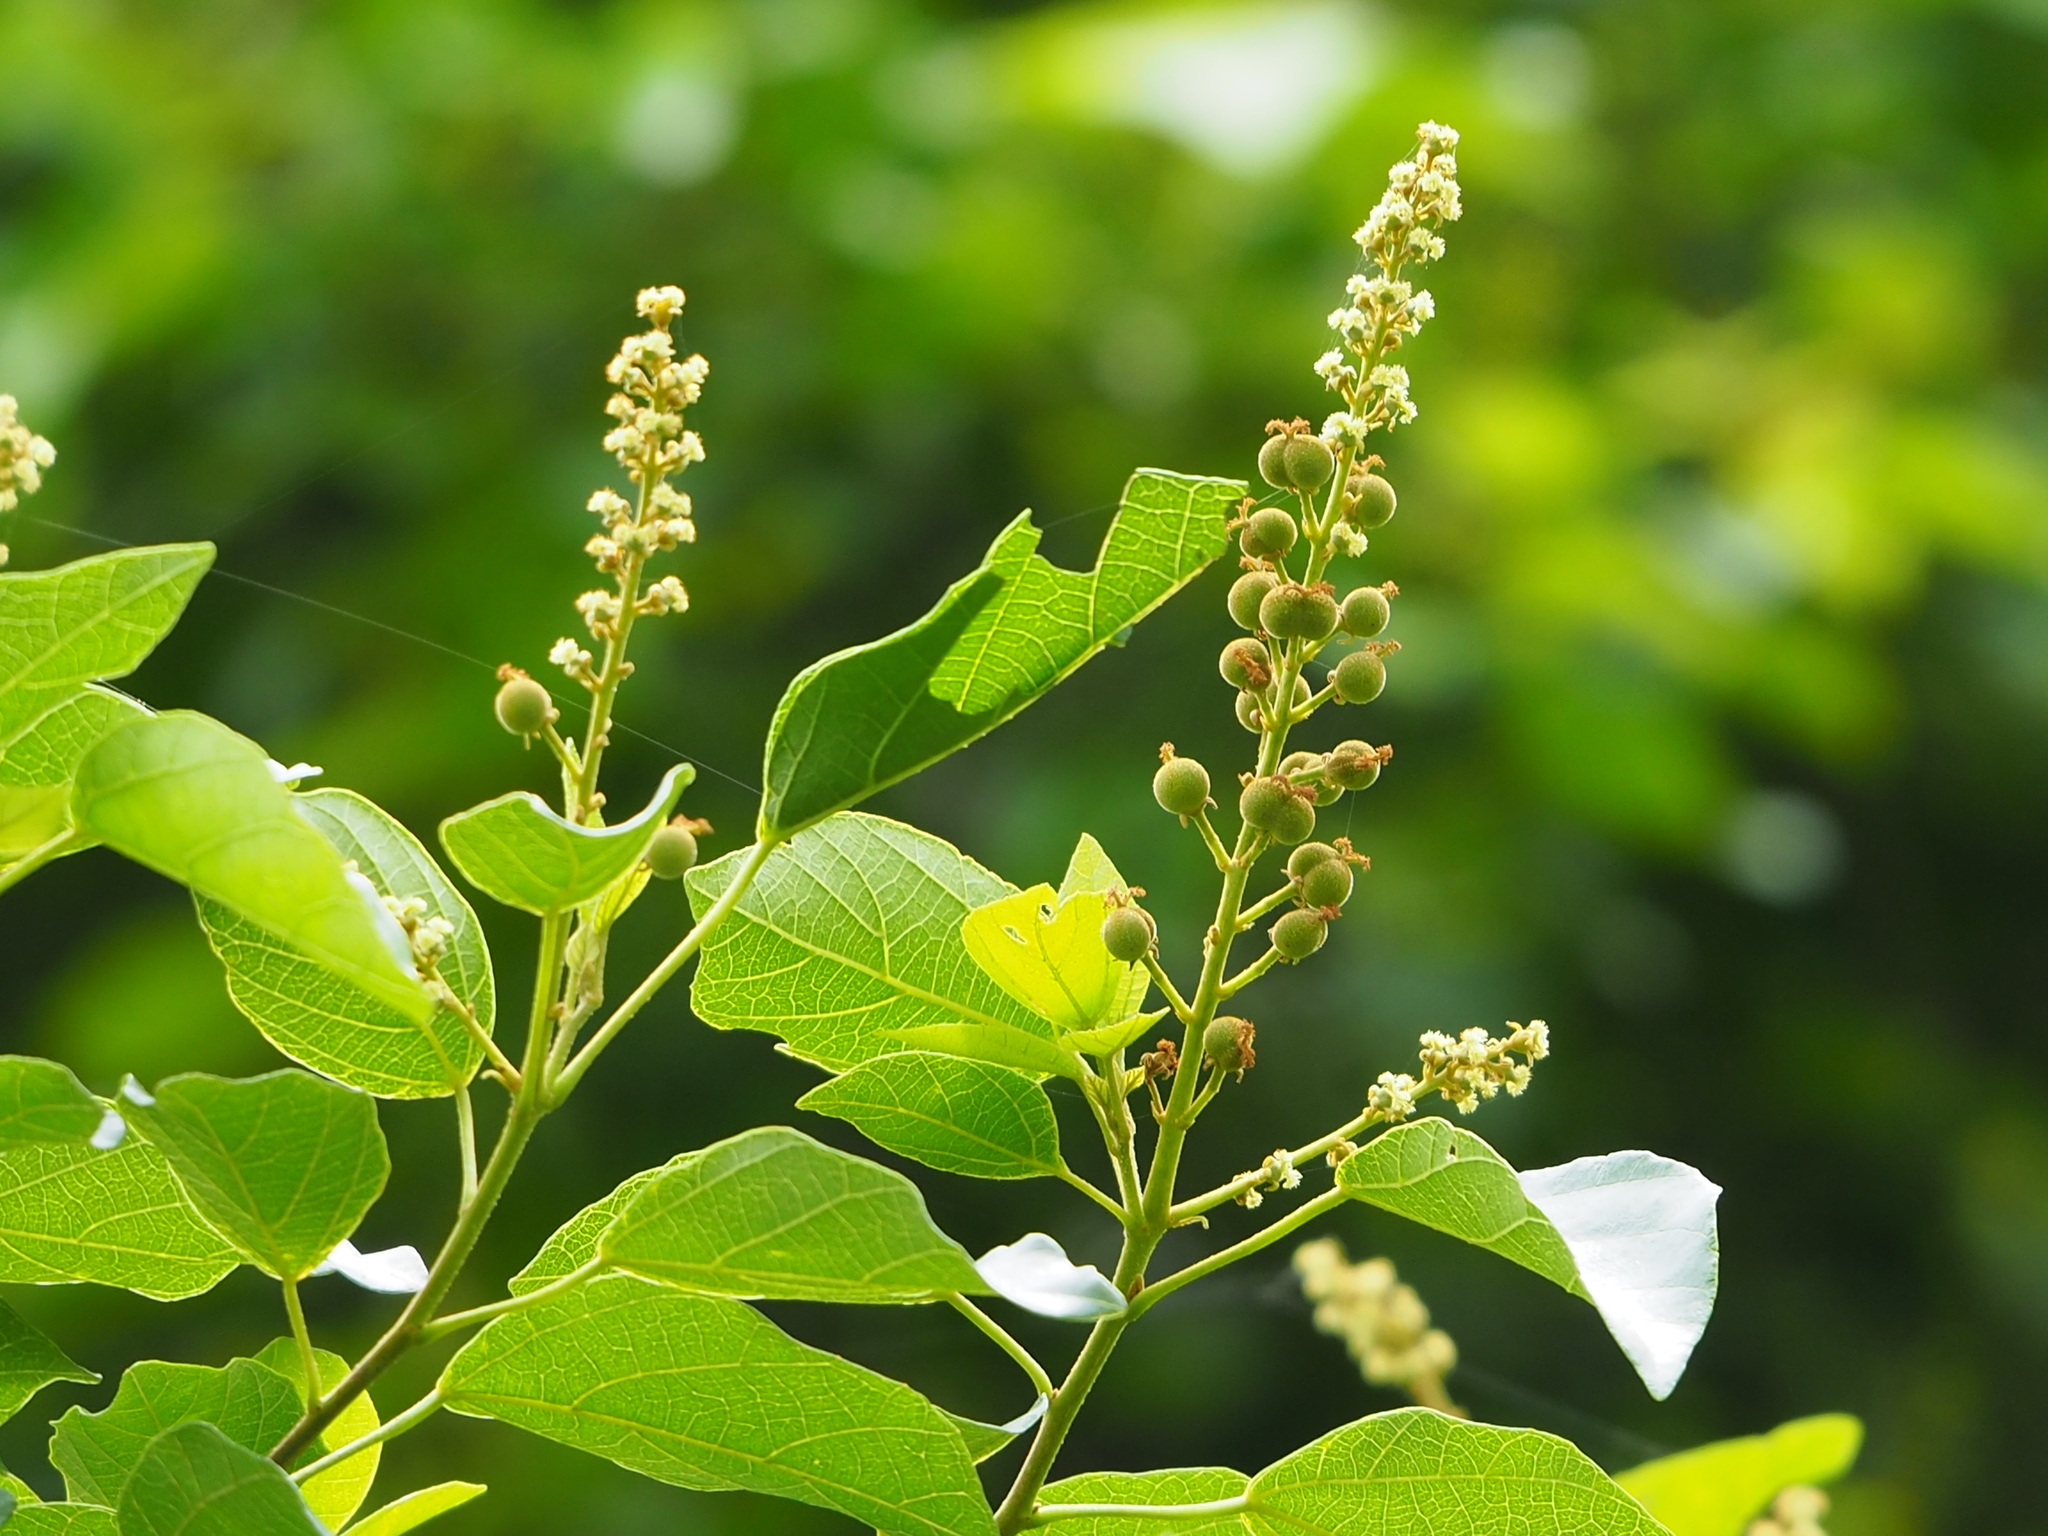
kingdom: Plantae
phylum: Tracheophyta
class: Magnoliopsida
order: Malpighiales
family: Euphorbiaceae
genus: Mallotus
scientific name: Mallotus repandus
